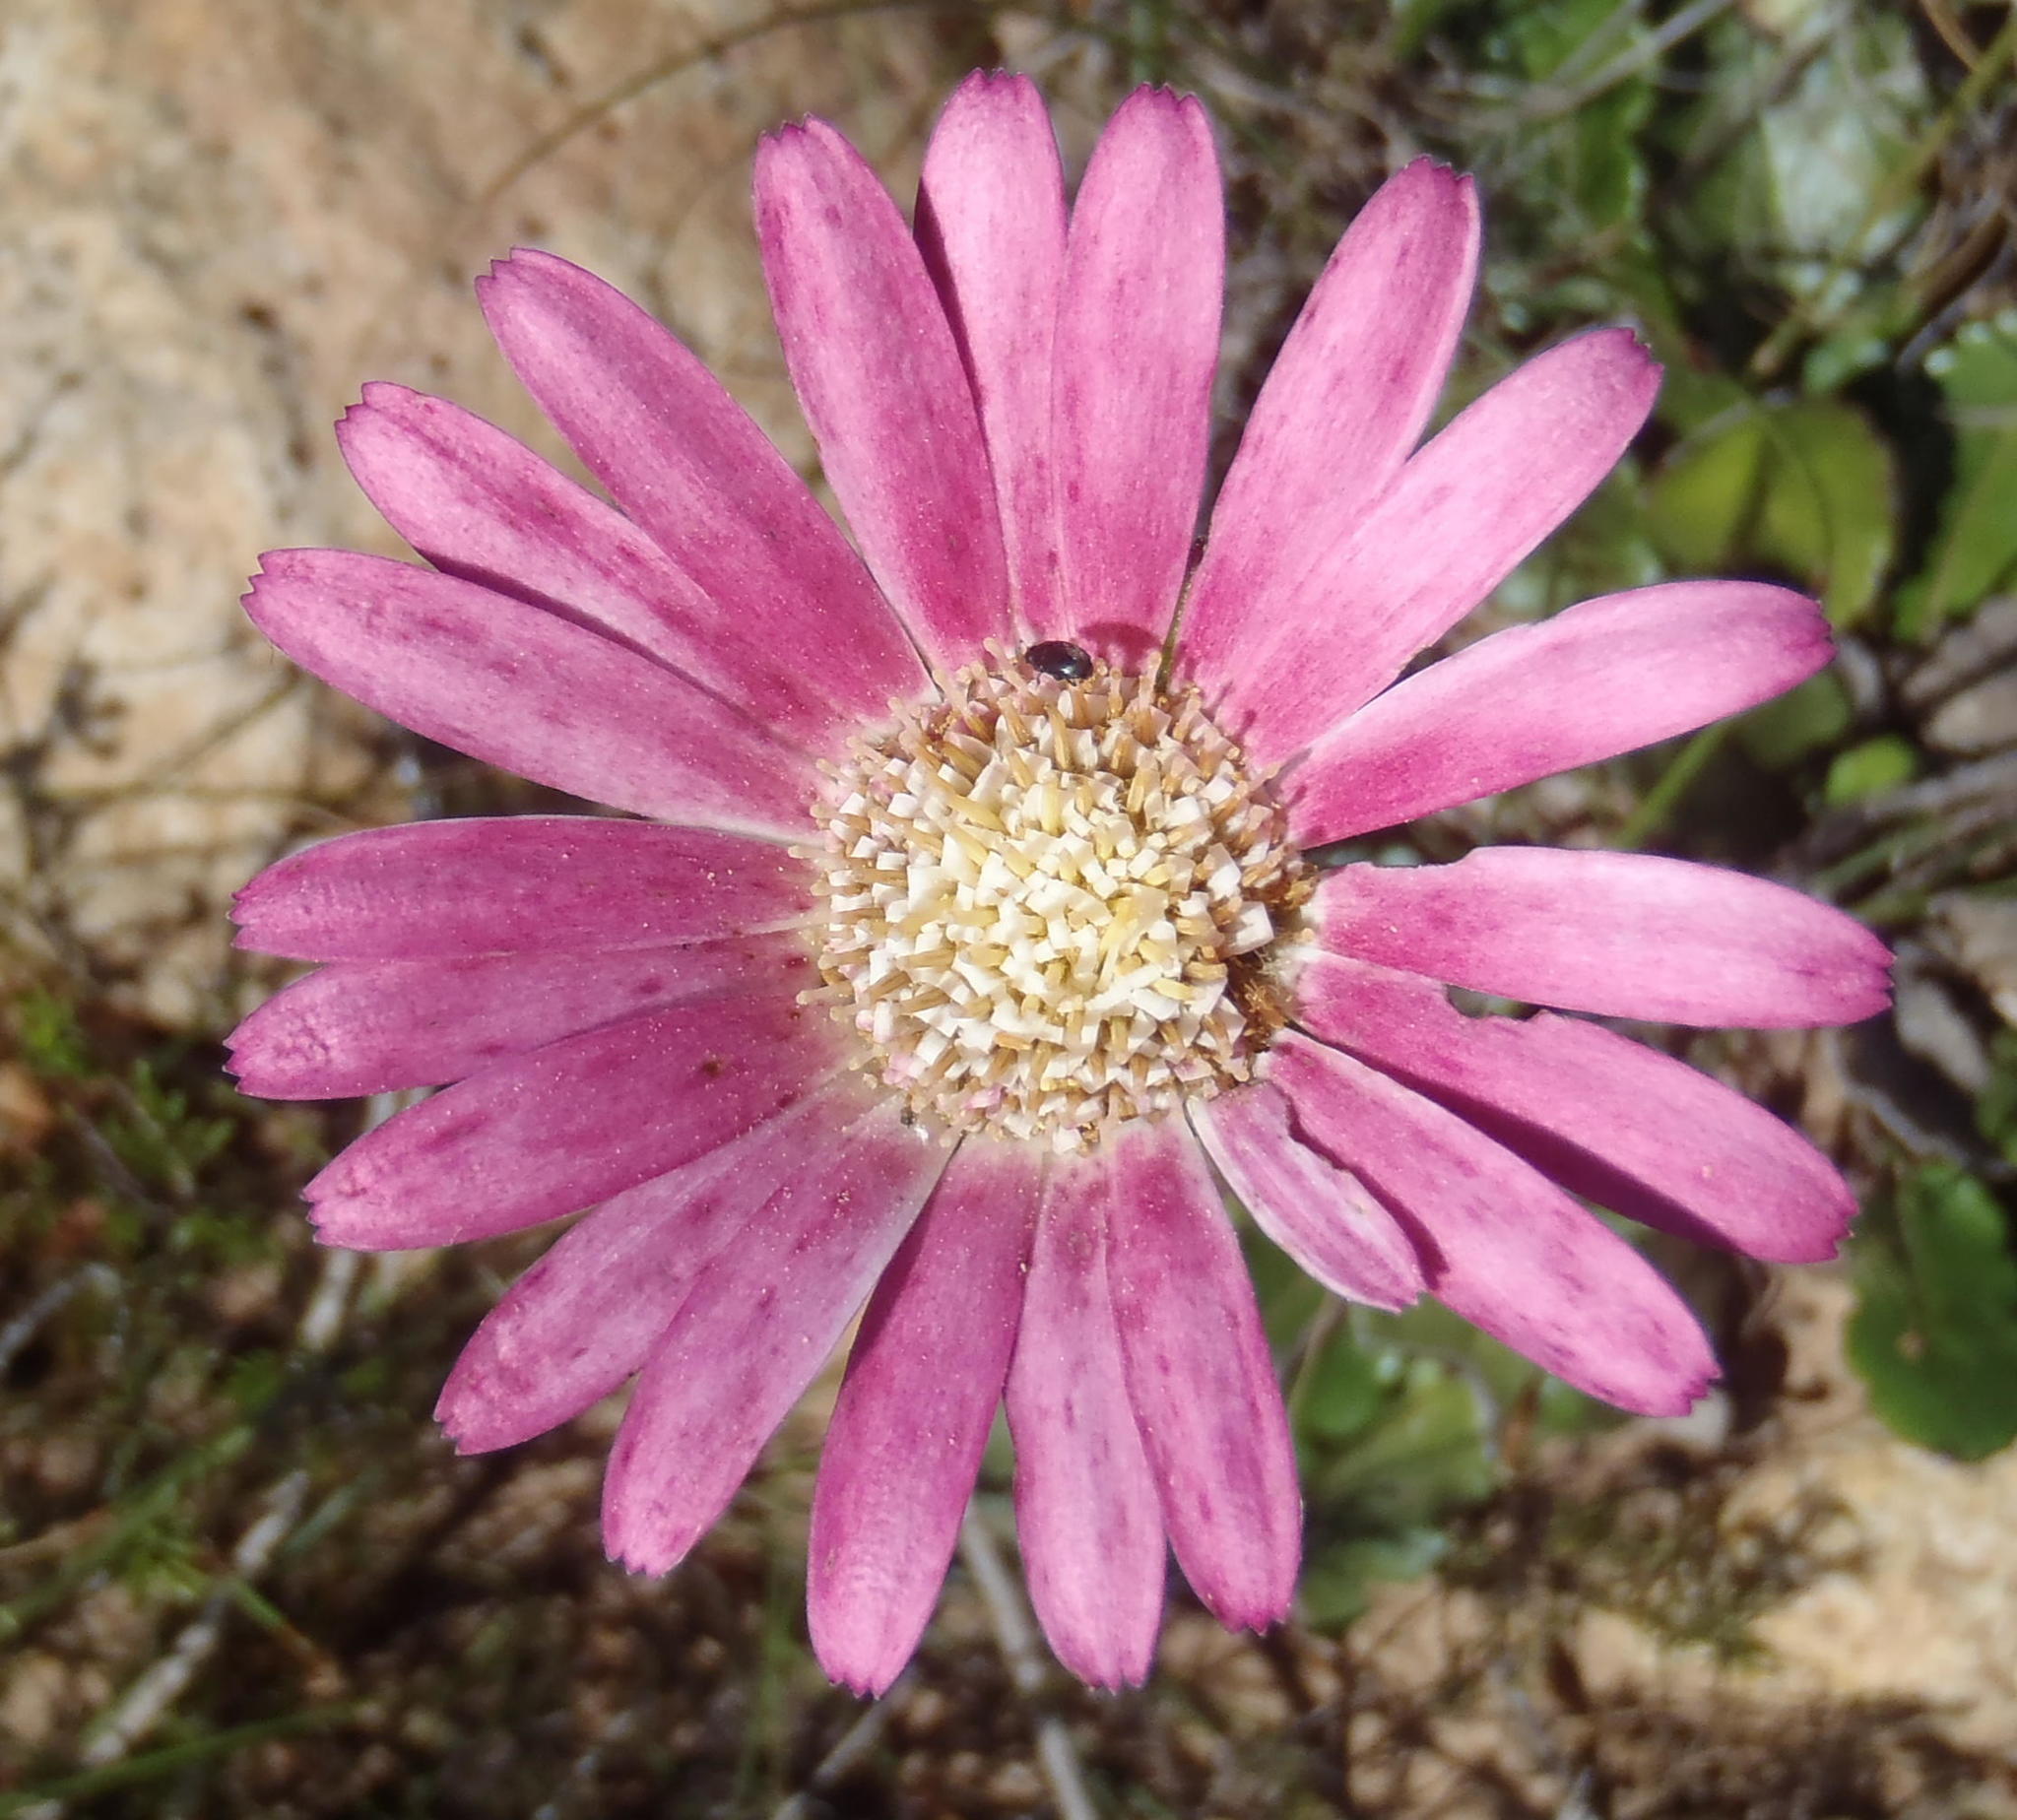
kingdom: Plantae
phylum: Tracheophyta
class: Magnoliopsida
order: Asterales
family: Asteraceae
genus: Gerbera
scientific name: Gerbera crocea
